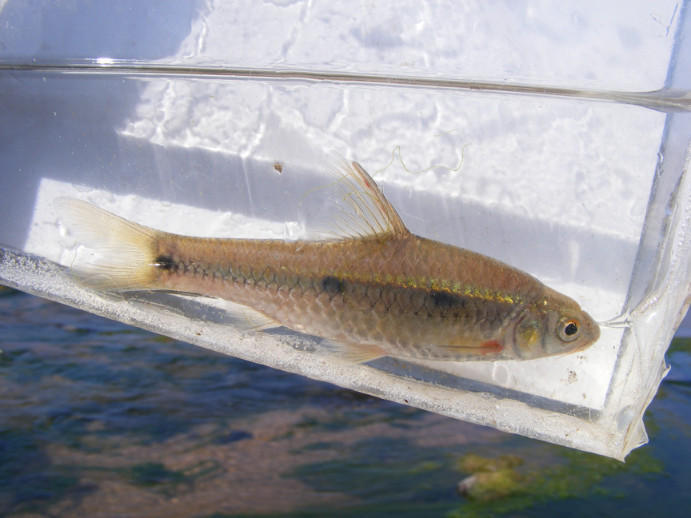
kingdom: Animalia
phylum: Chordata
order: Cypriniformes
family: Cyprinidae
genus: Enteromius
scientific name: Enteromius trimaculatus
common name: Threespot barb
